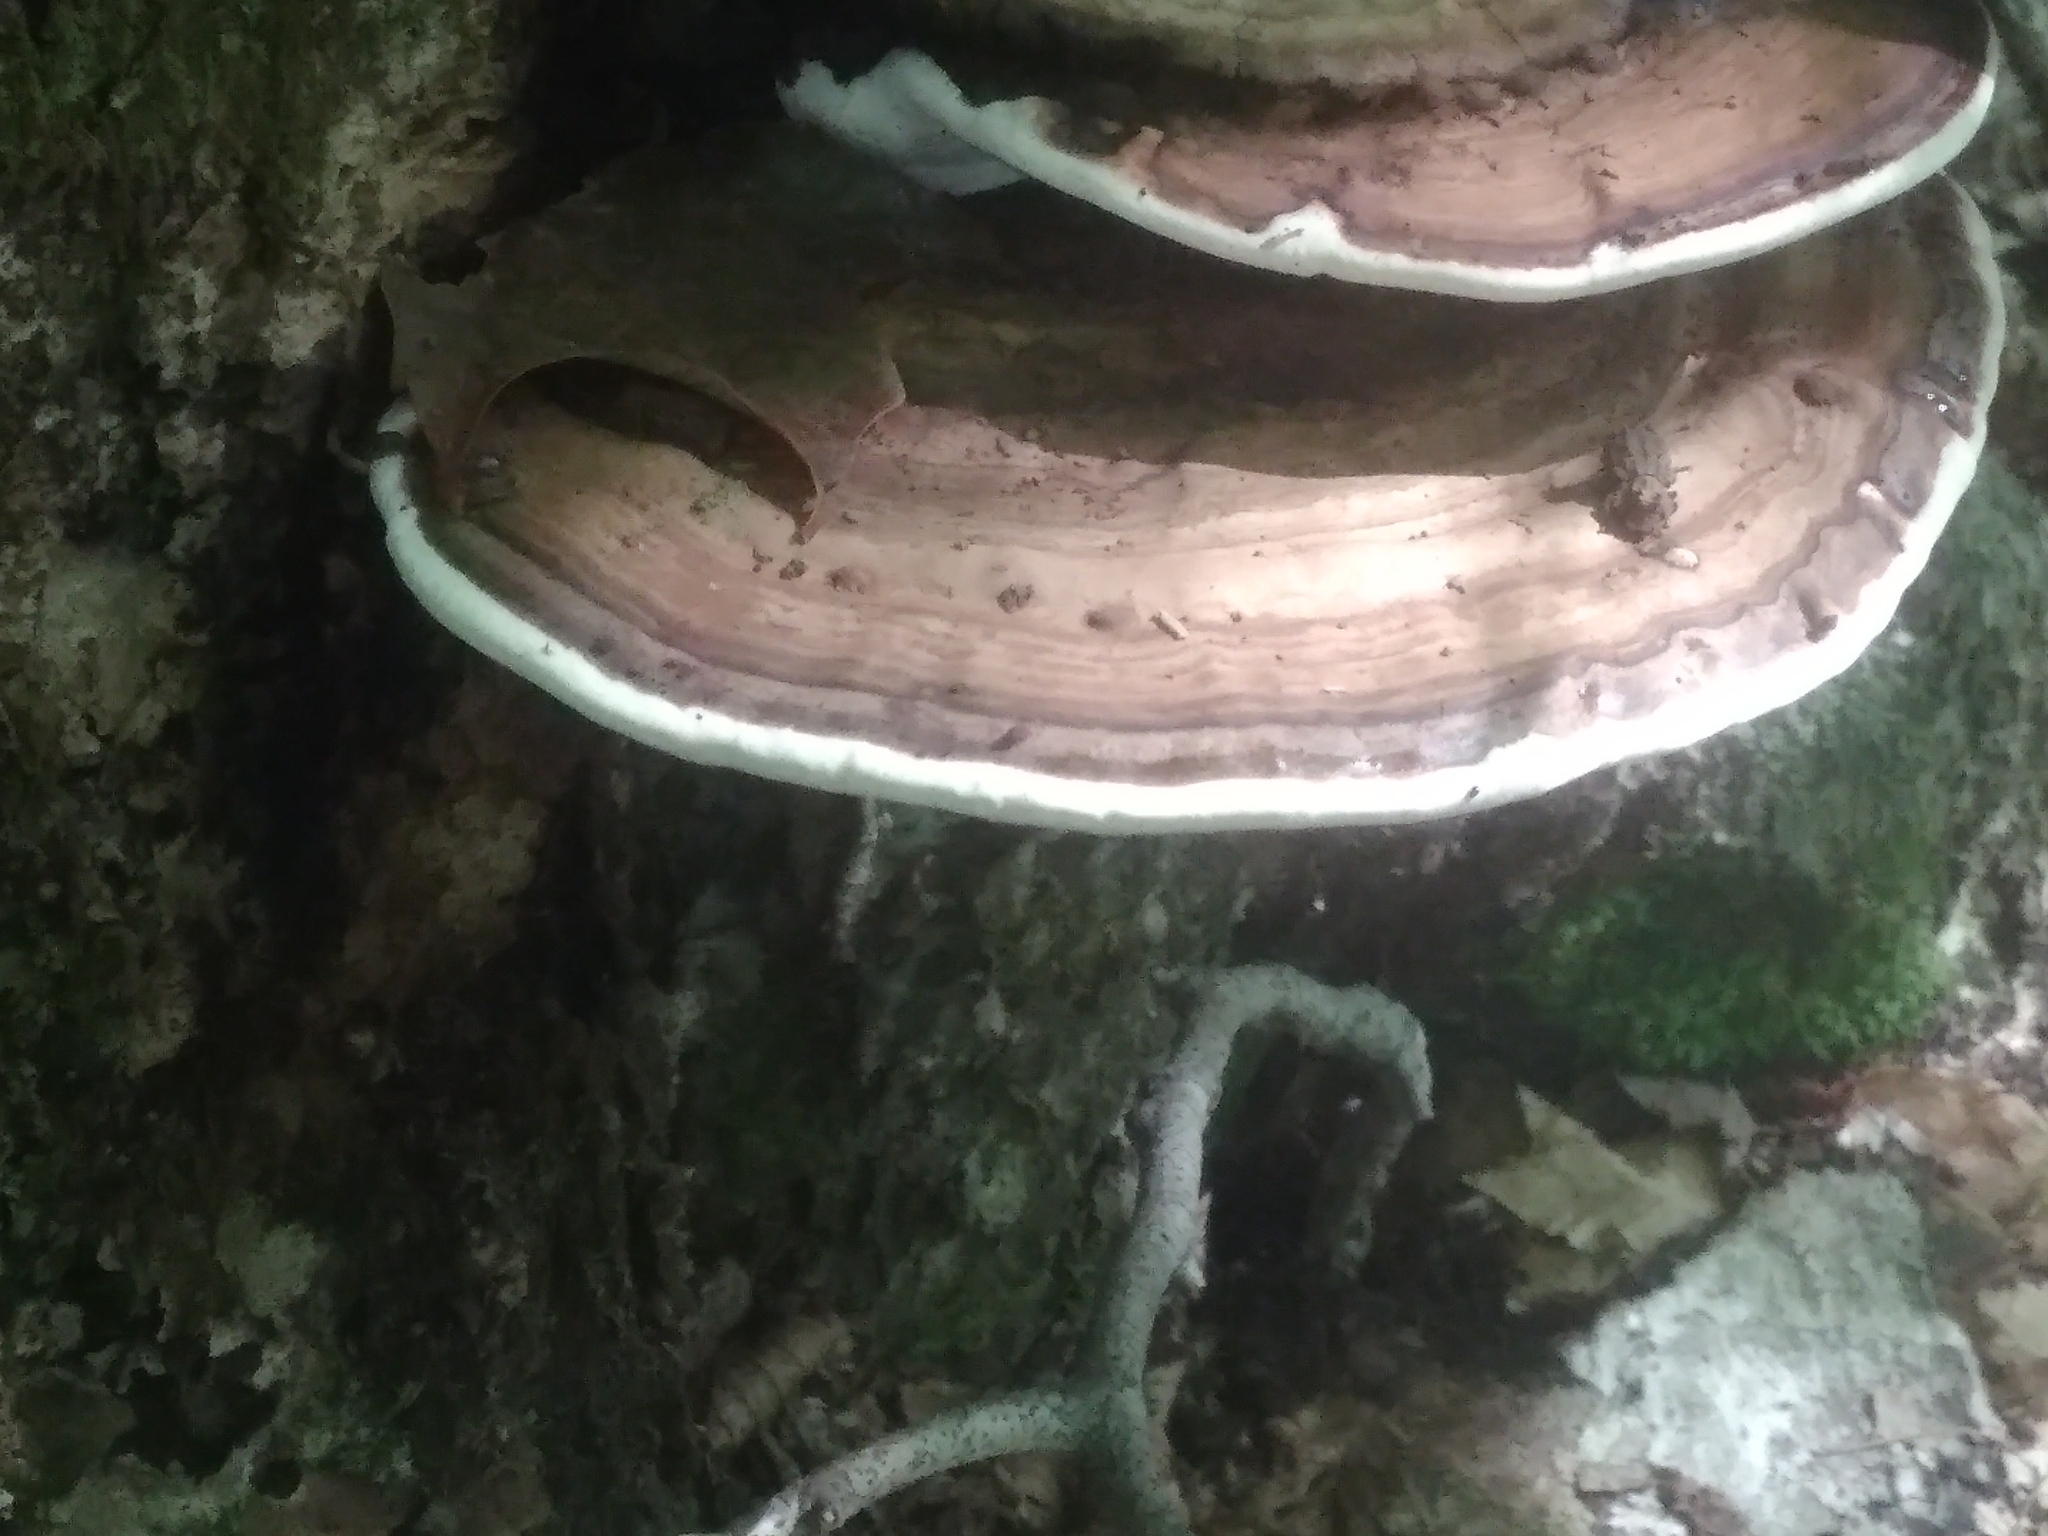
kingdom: Fungi
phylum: Basidiomycota
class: Agaricomycetes
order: Polyporales
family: Polyporaceae
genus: Ganoderma
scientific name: Ganoderma applanatum
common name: Artist's bracket
